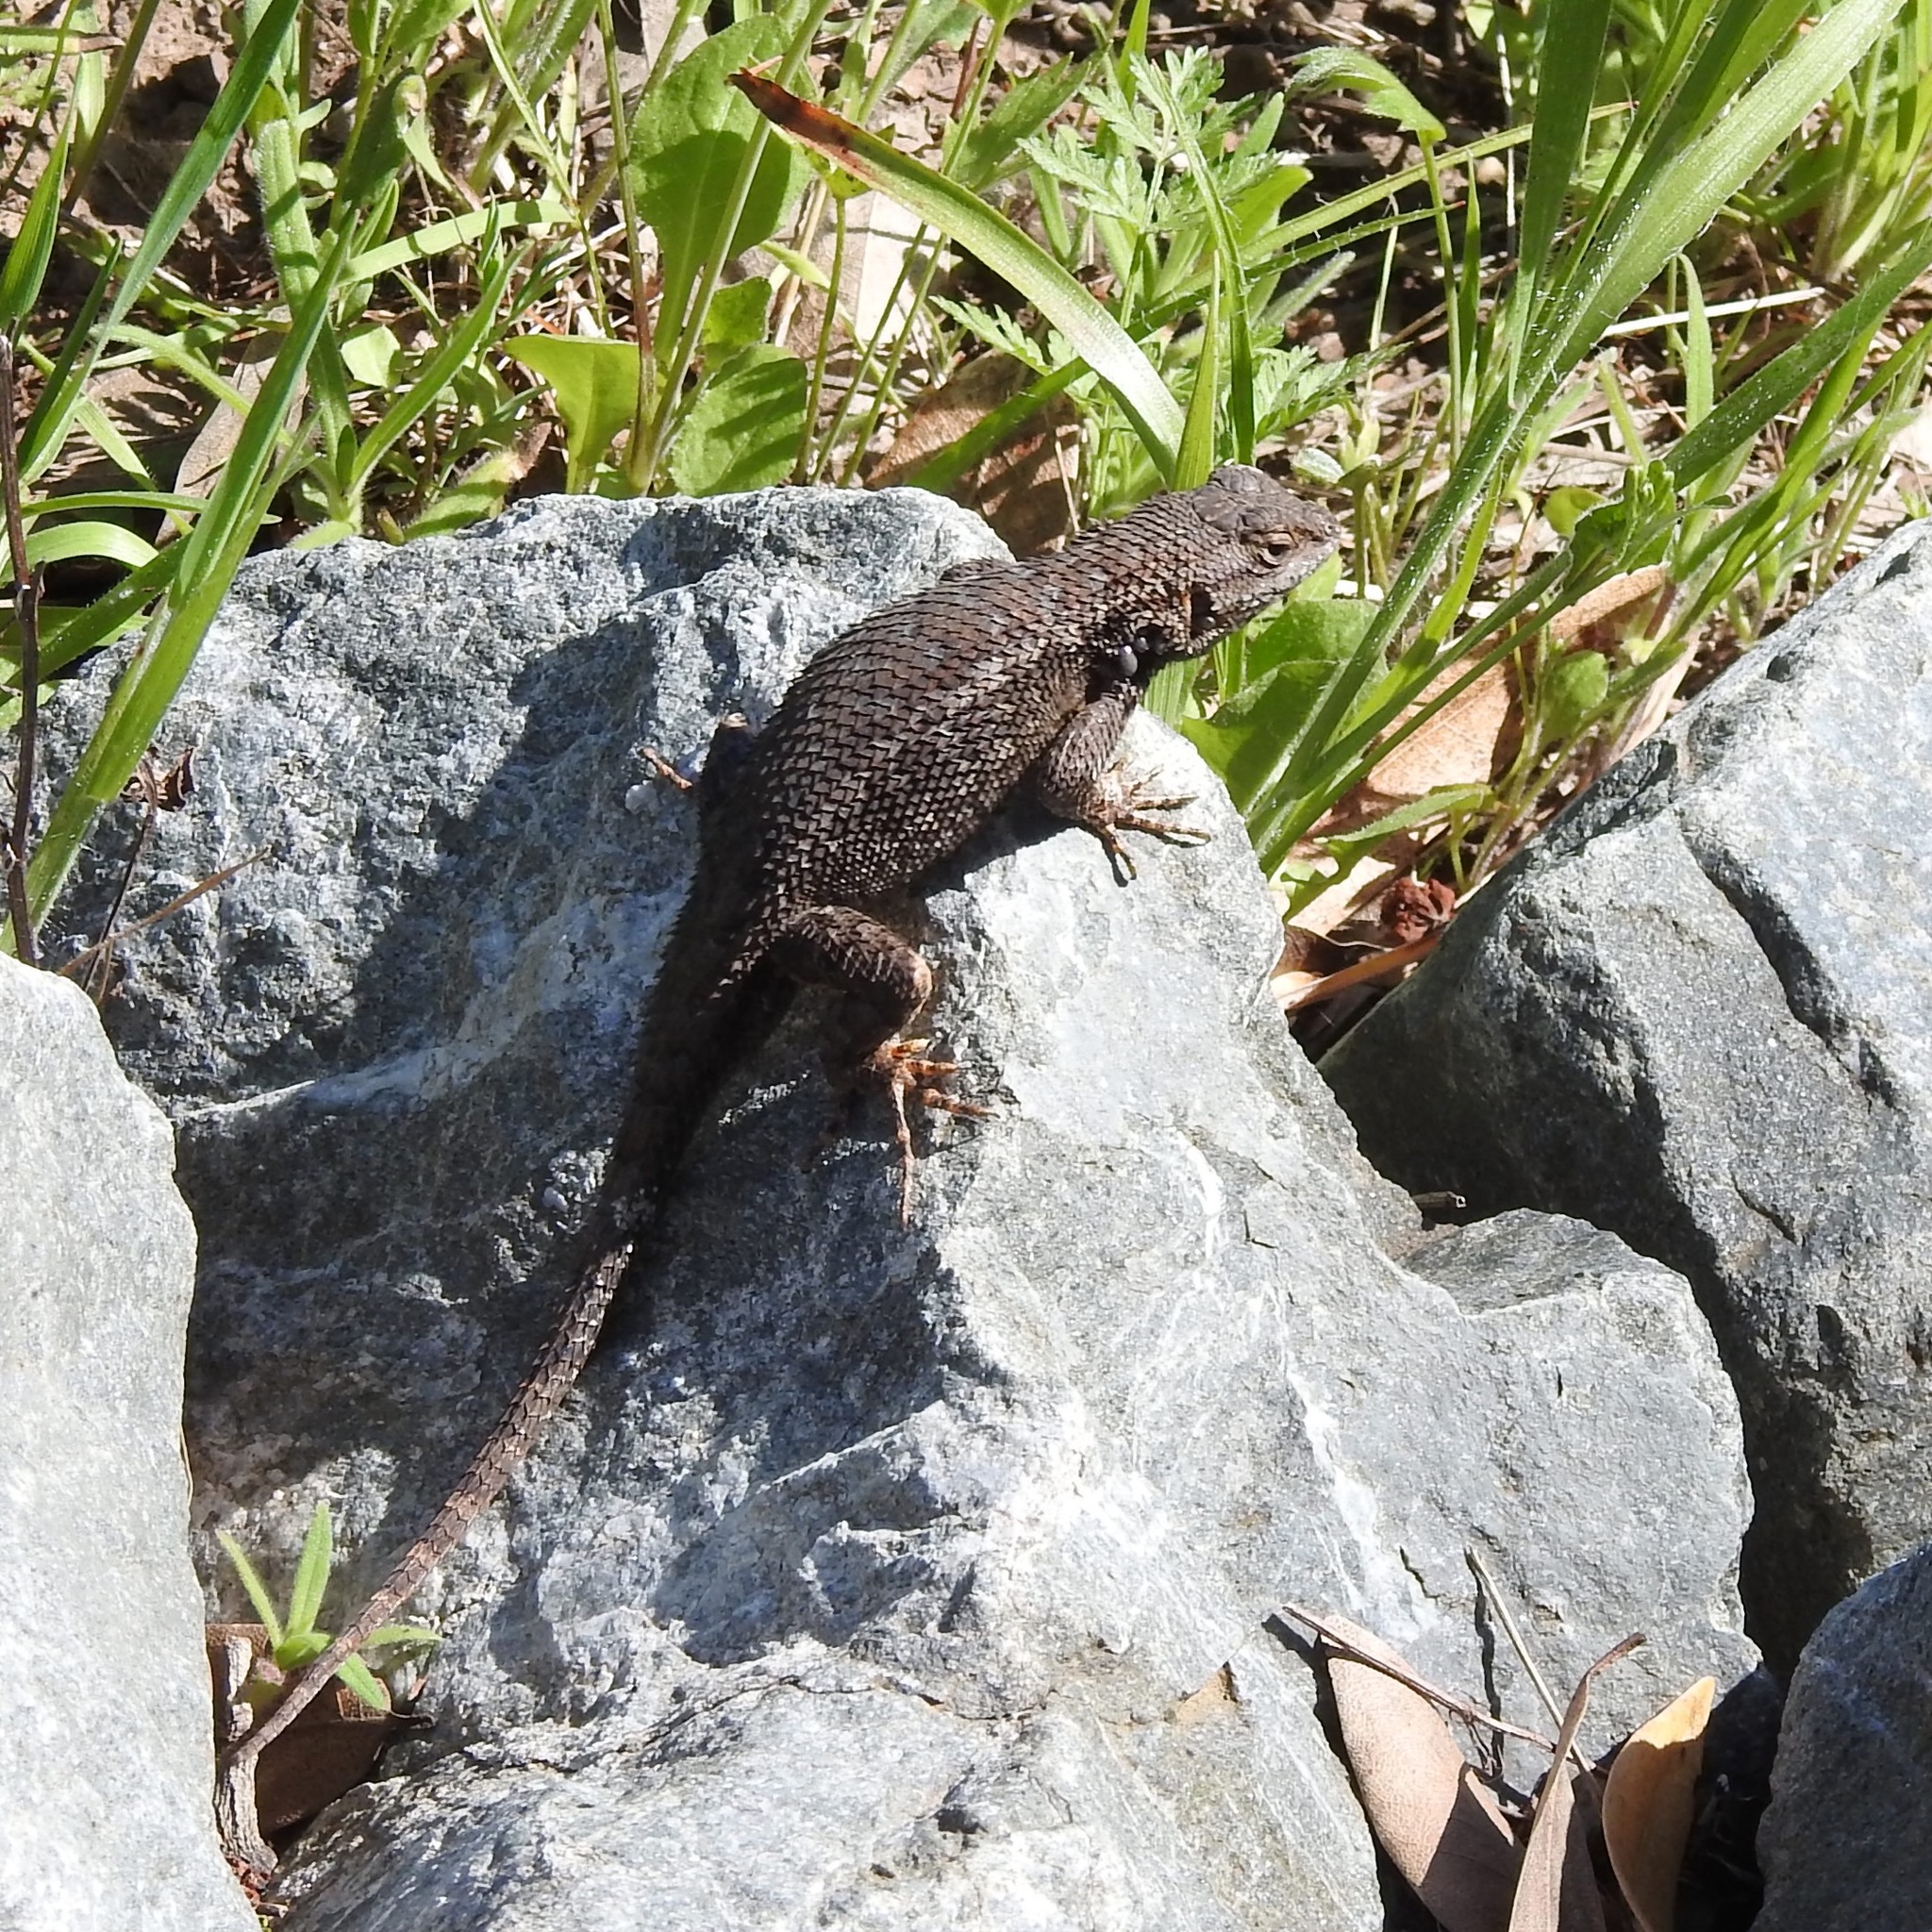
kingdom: Animalia
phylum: Chordata
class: Squamata
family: Phrynosomatidae
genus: Sceloporus
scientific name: Sceloporus occidentalis
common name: Western fence lizard
